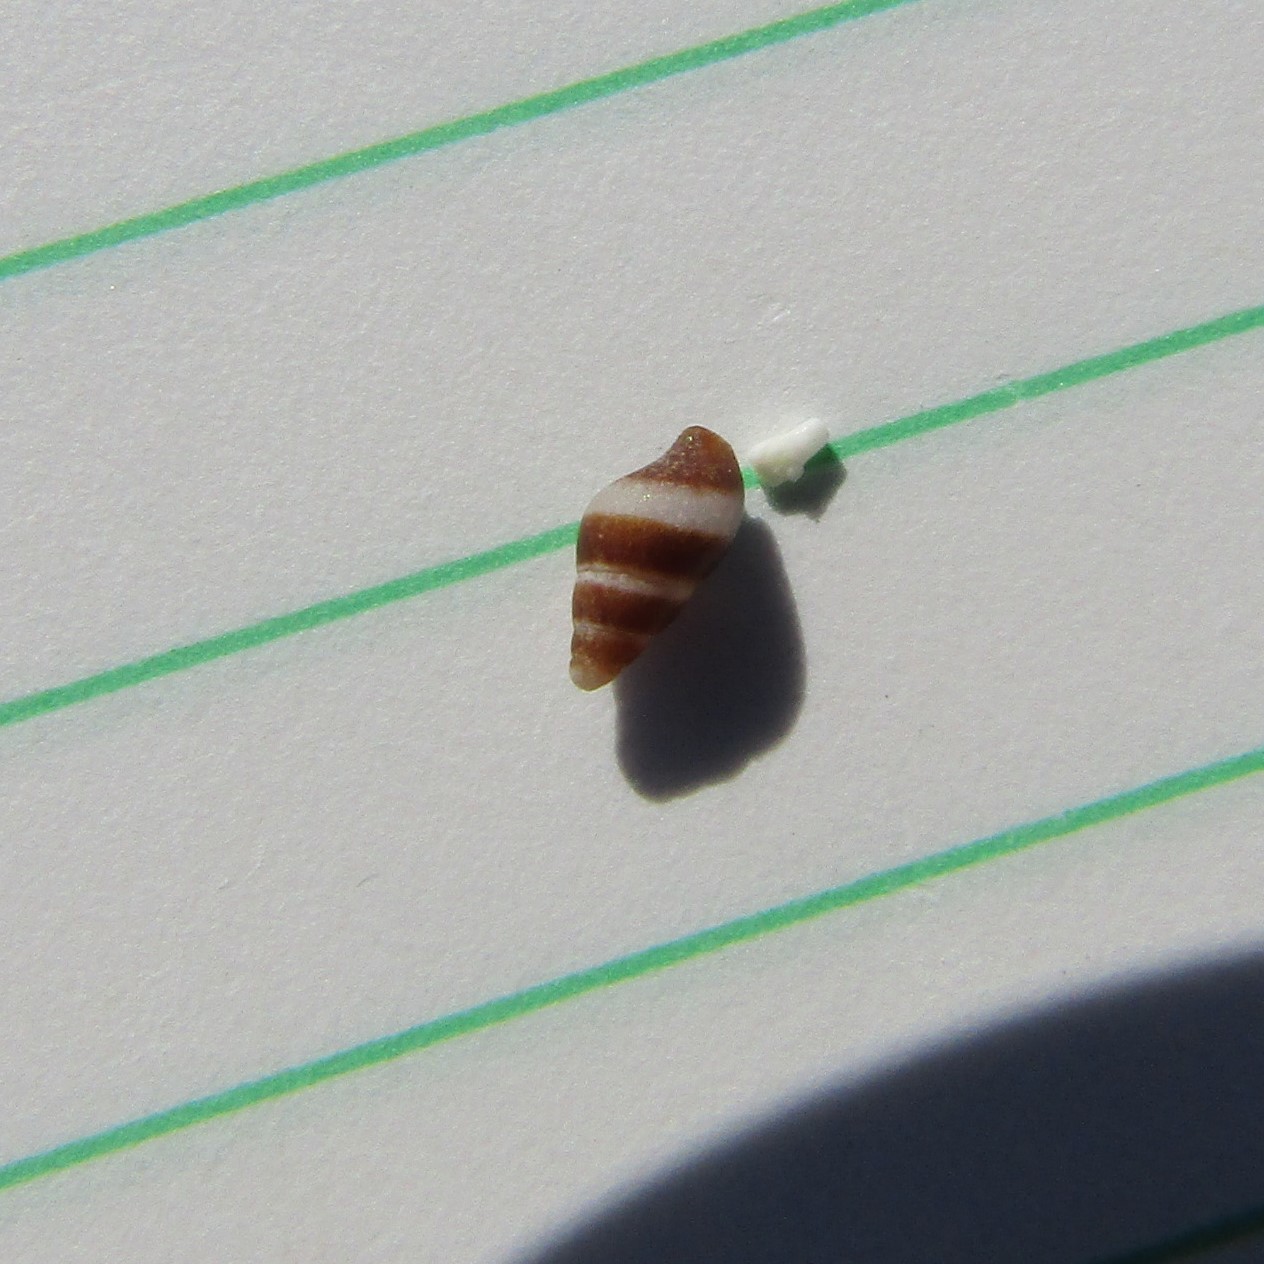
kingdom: Animalia
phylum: Mollusca
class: Gastropoda
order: Neogastropoda
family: Tudiclidae
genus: Buccinulum
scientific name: Buccinulum vittatum
